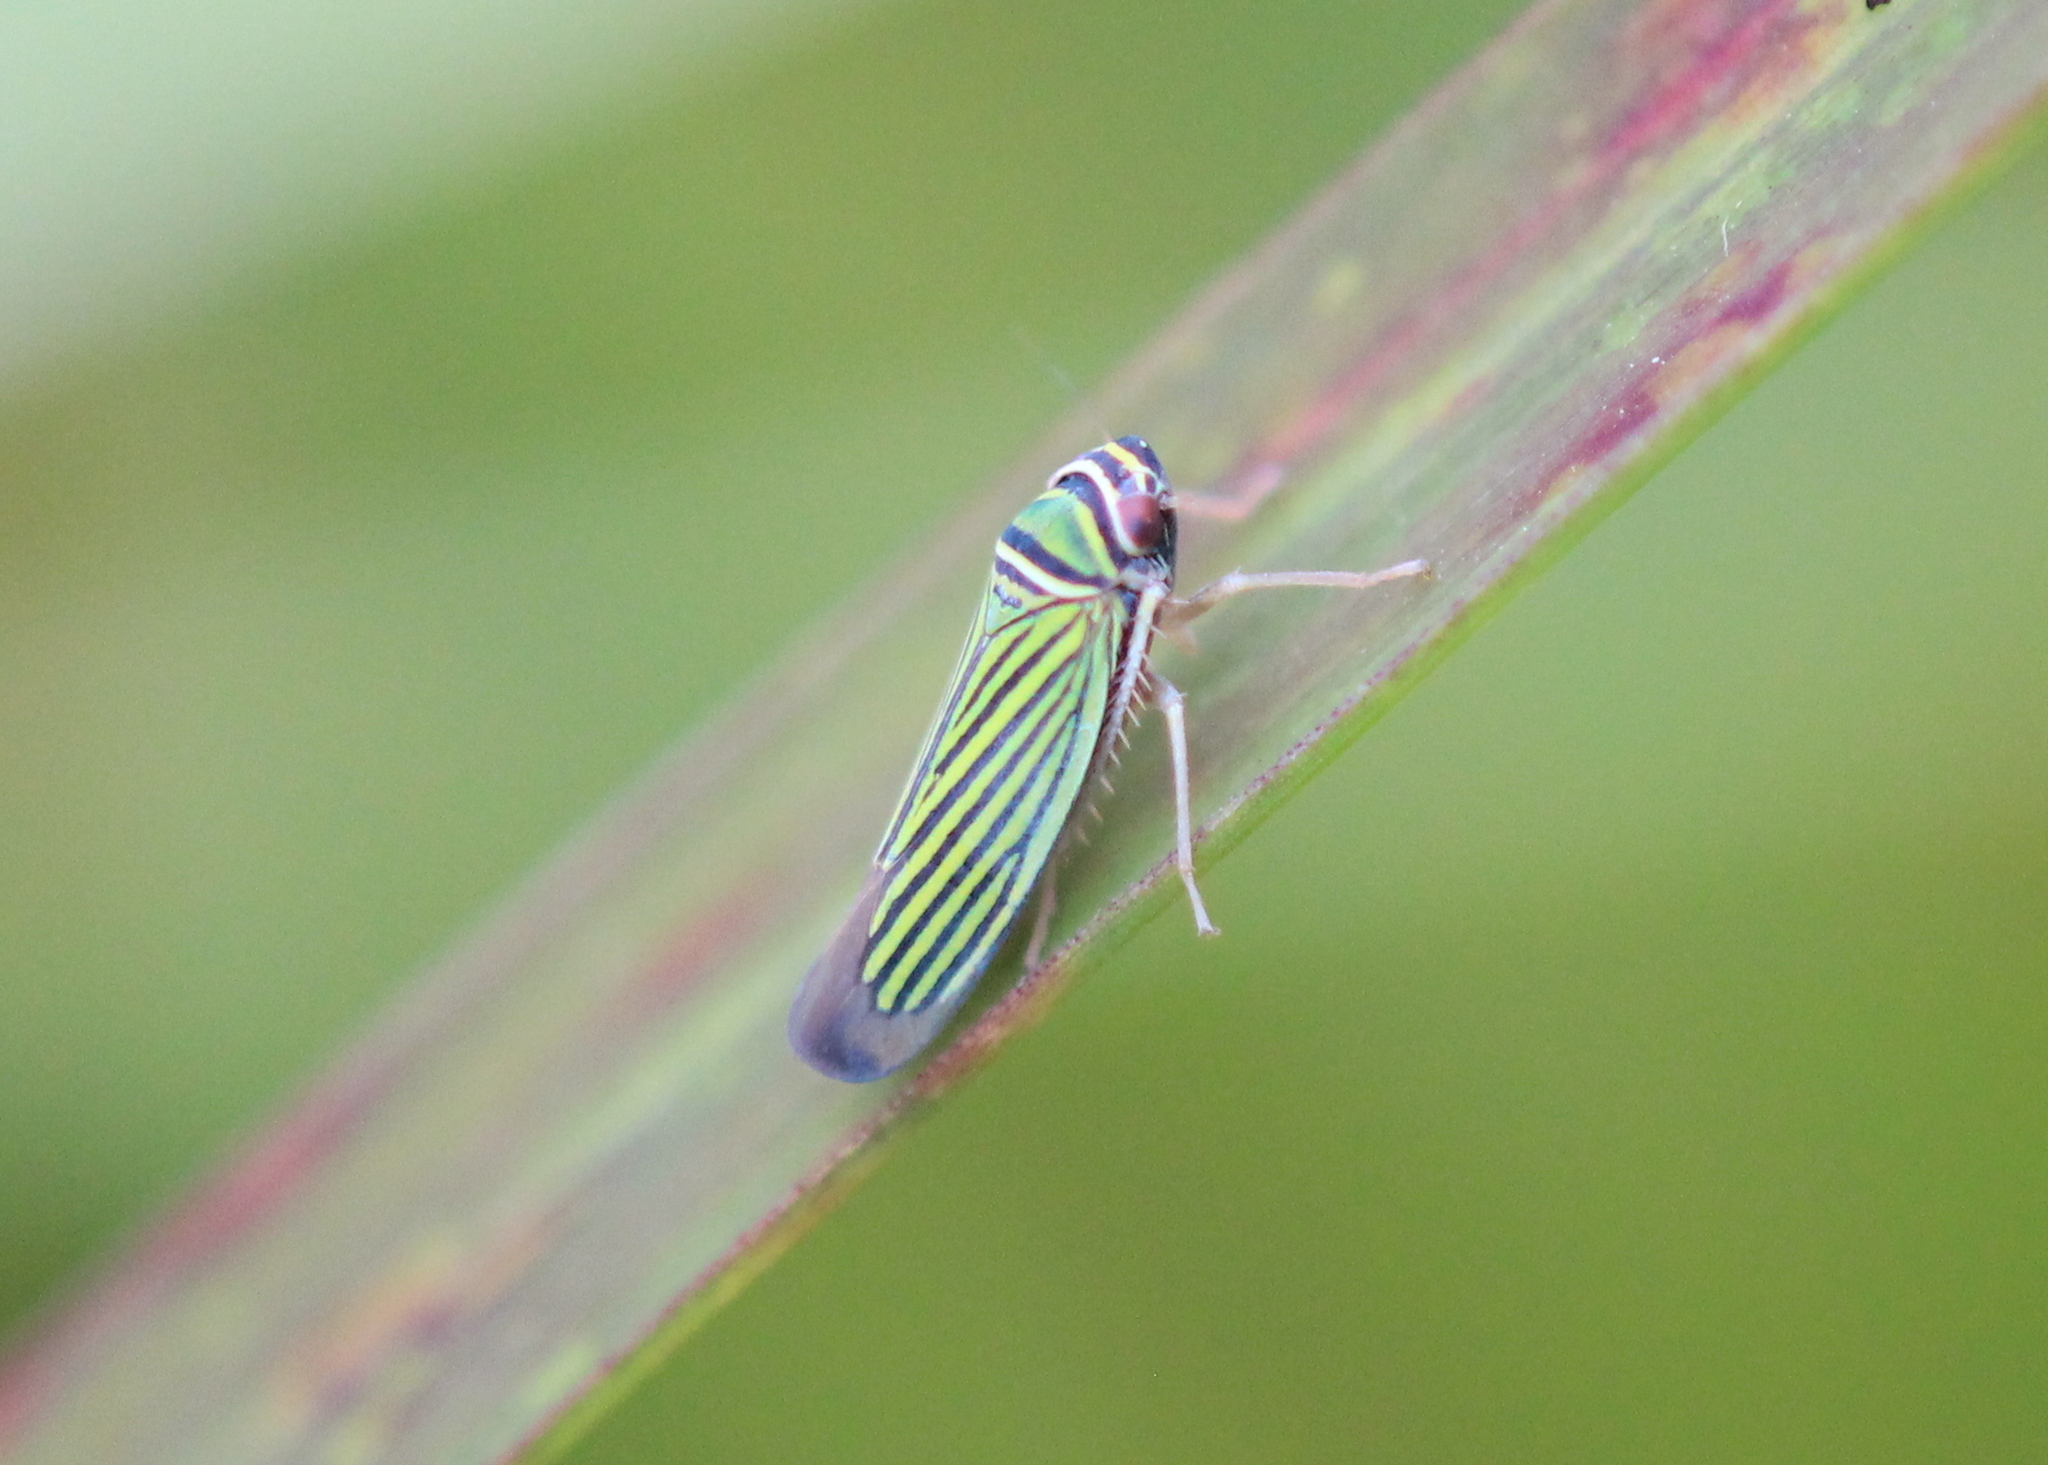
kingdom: Animalia
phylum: Arthropoda
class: Insecta
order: Hemiptera
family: Cicadellidae
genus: Tylozygus
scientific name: Tylozygus bifidus
